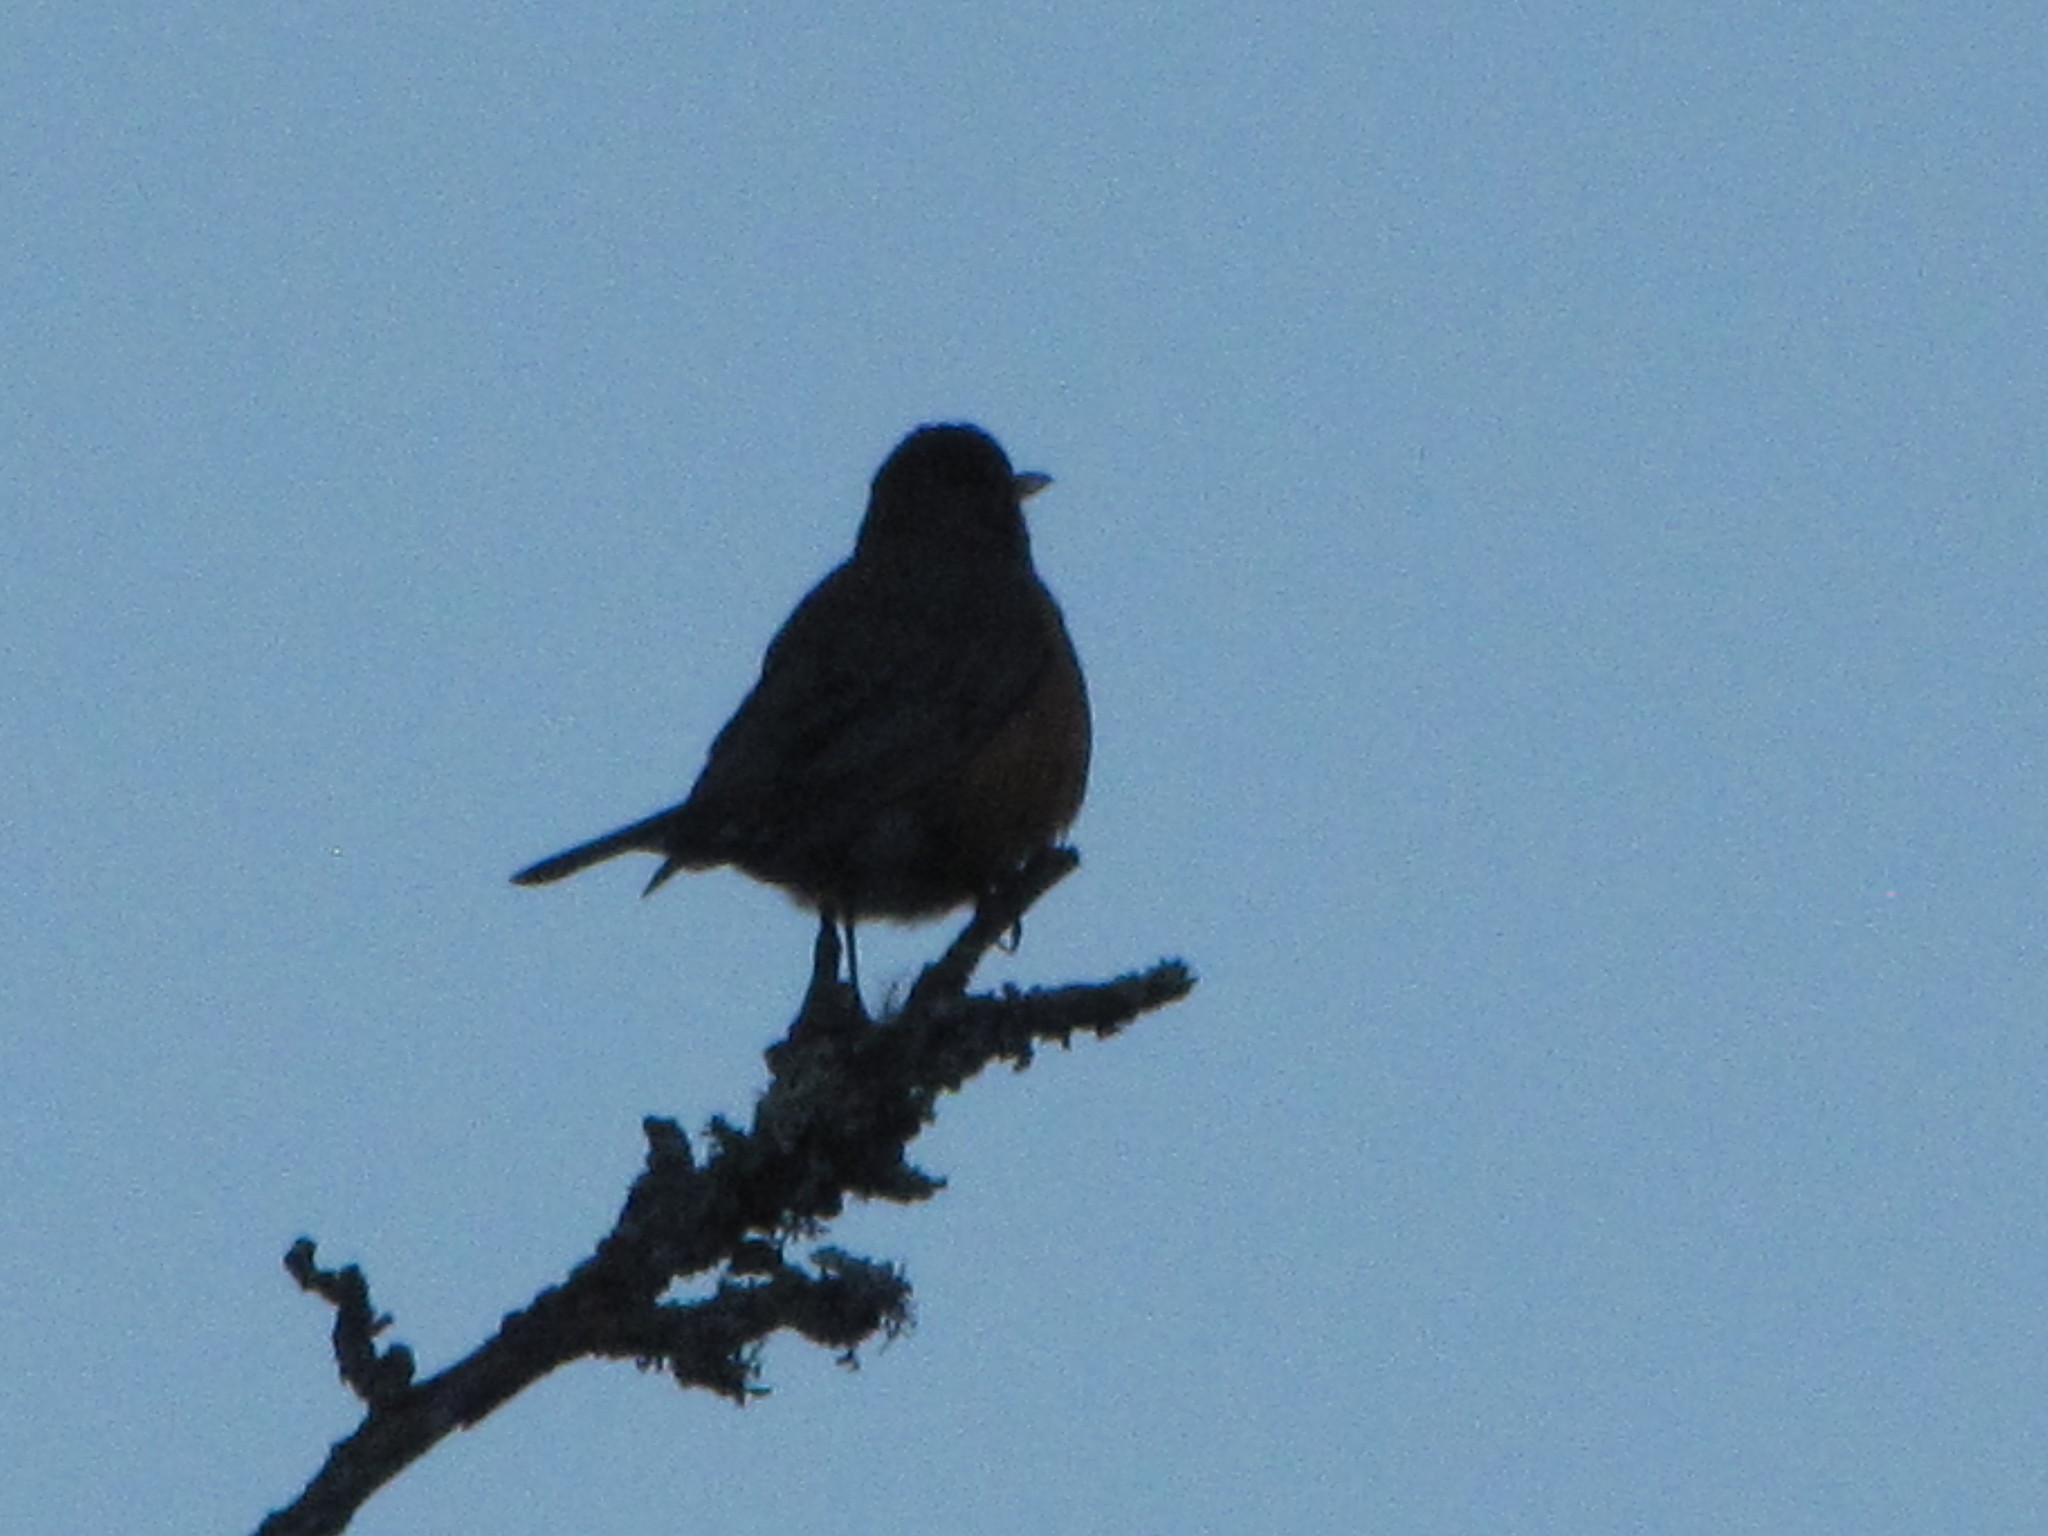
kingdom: Animalia
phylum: Chordata
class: Aves
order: Passeriformes
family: Turdidae
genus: Turdus
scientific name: Turdus migratorius
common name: American robin
